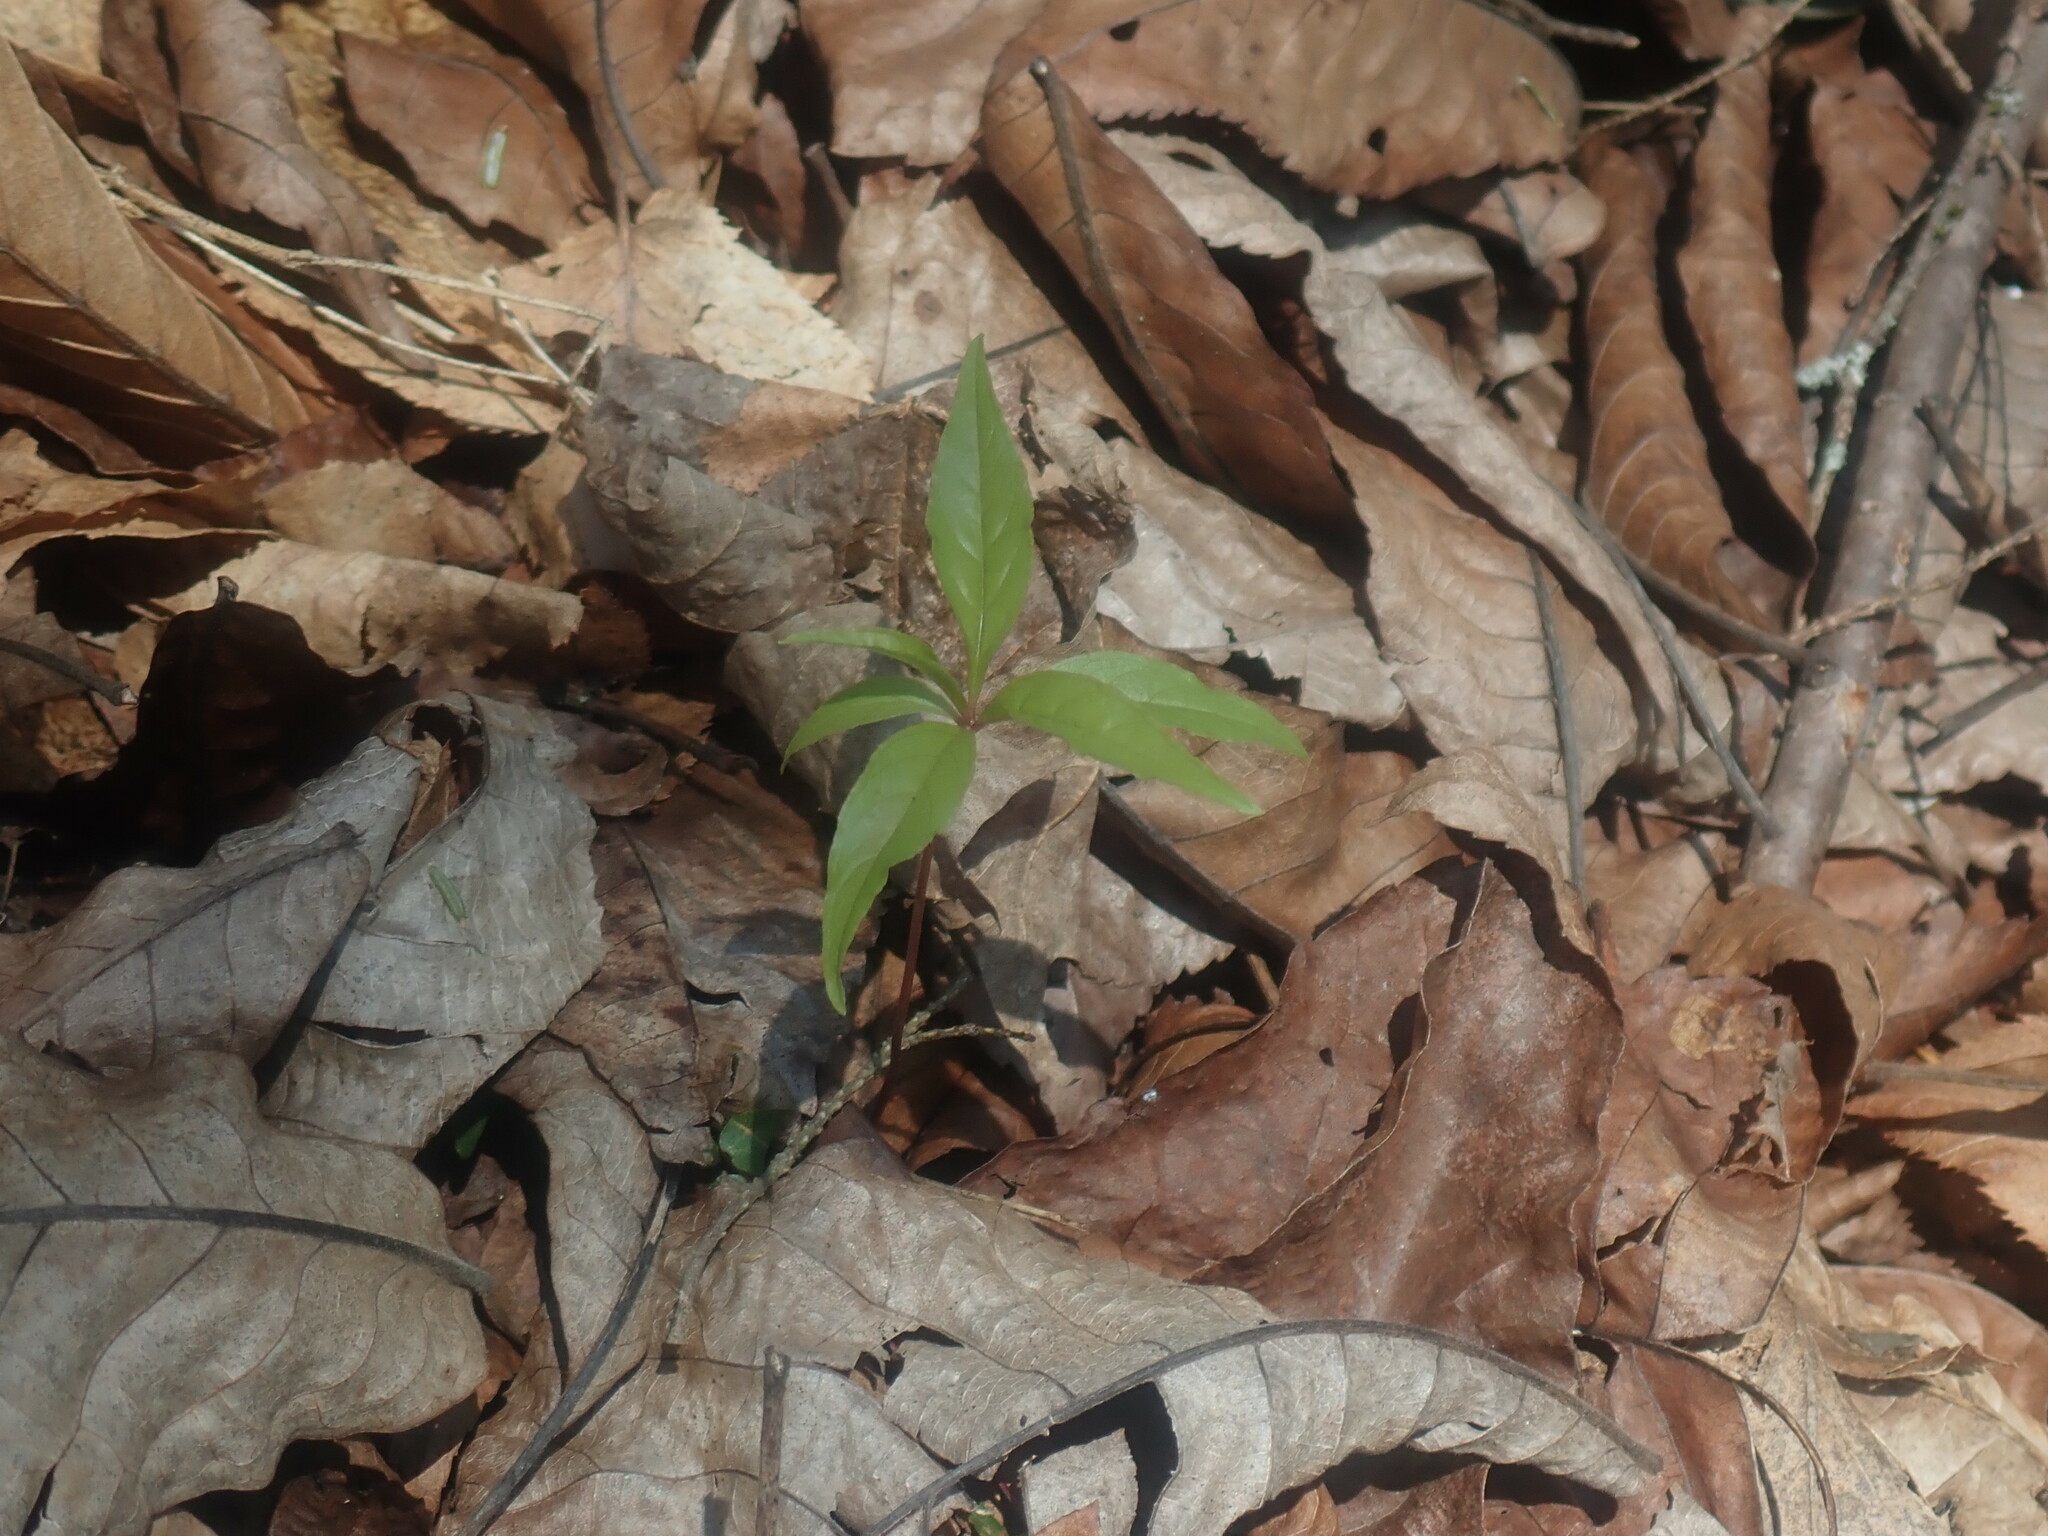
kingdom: Plantae
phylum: Tracheophyta
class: Magnoliopsida
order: Ericales
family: Primulaceae
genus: Lysimachia
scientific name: Lysimachia borealis
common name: American starflower
